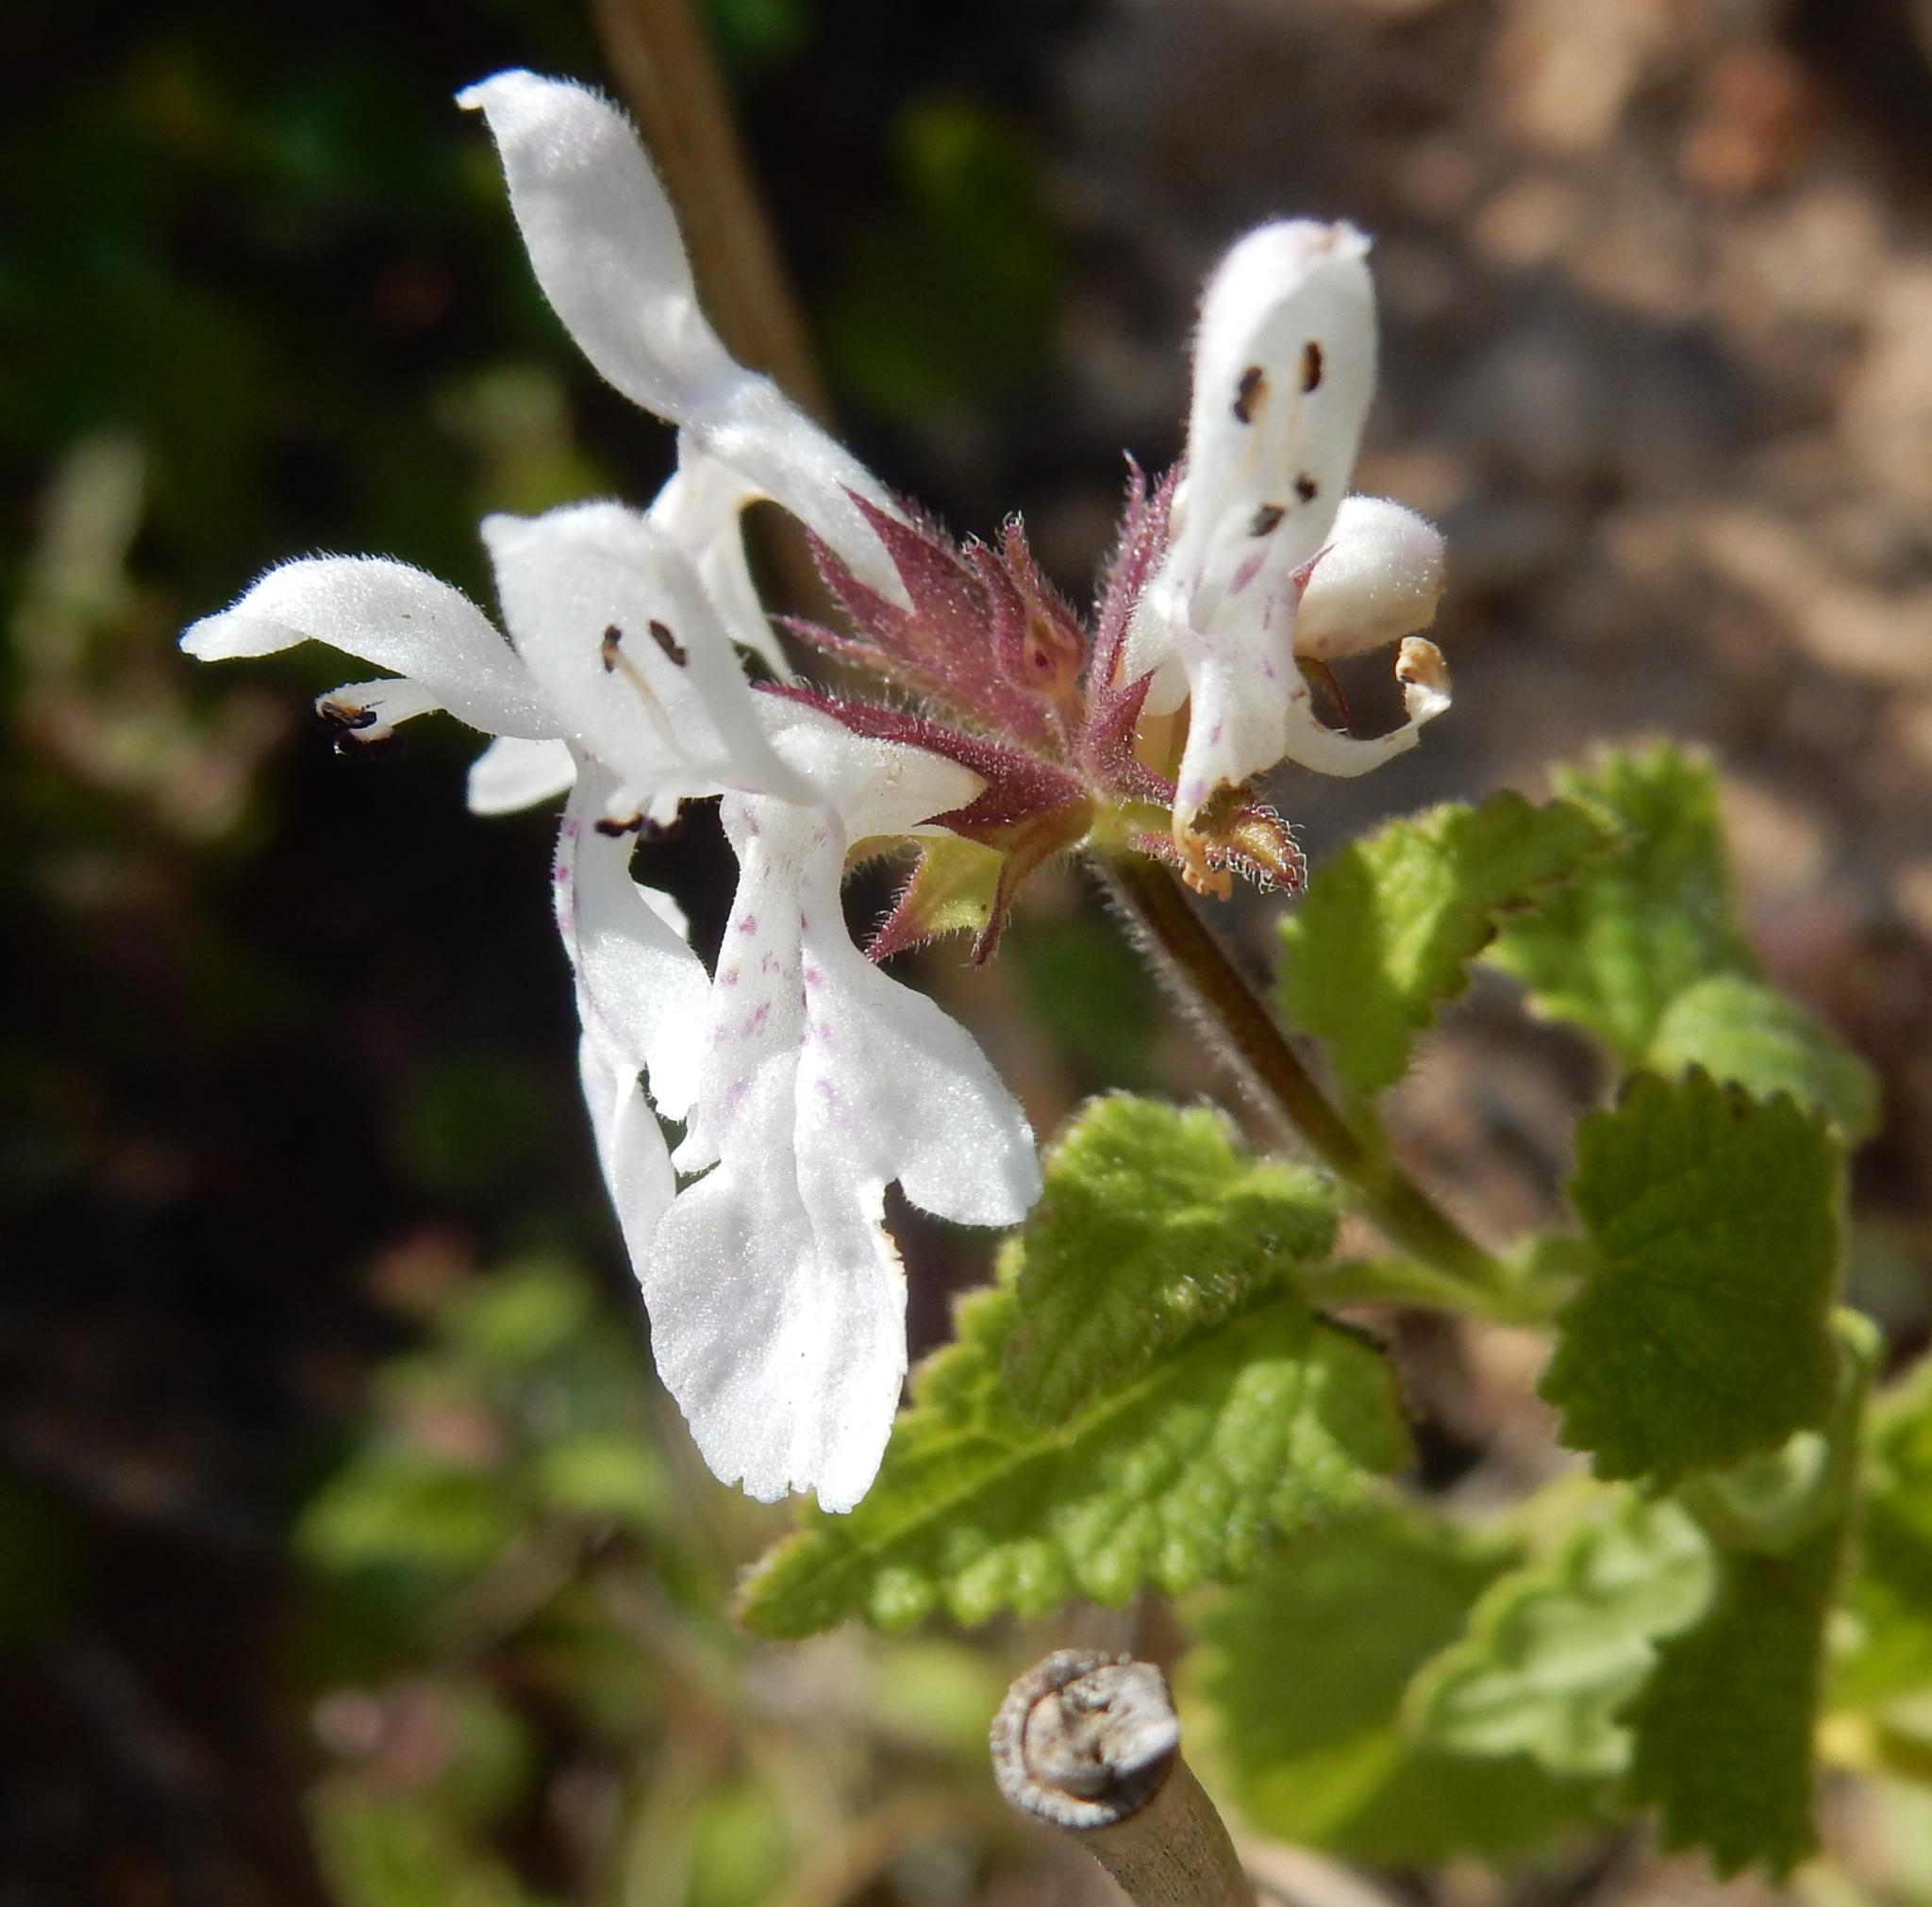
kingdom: Plantae
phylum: Tracheophyta
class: Magnoliopsida
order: Lamiales
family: Lamiaceae
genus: Stachys
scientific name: Stachys aethiopica
